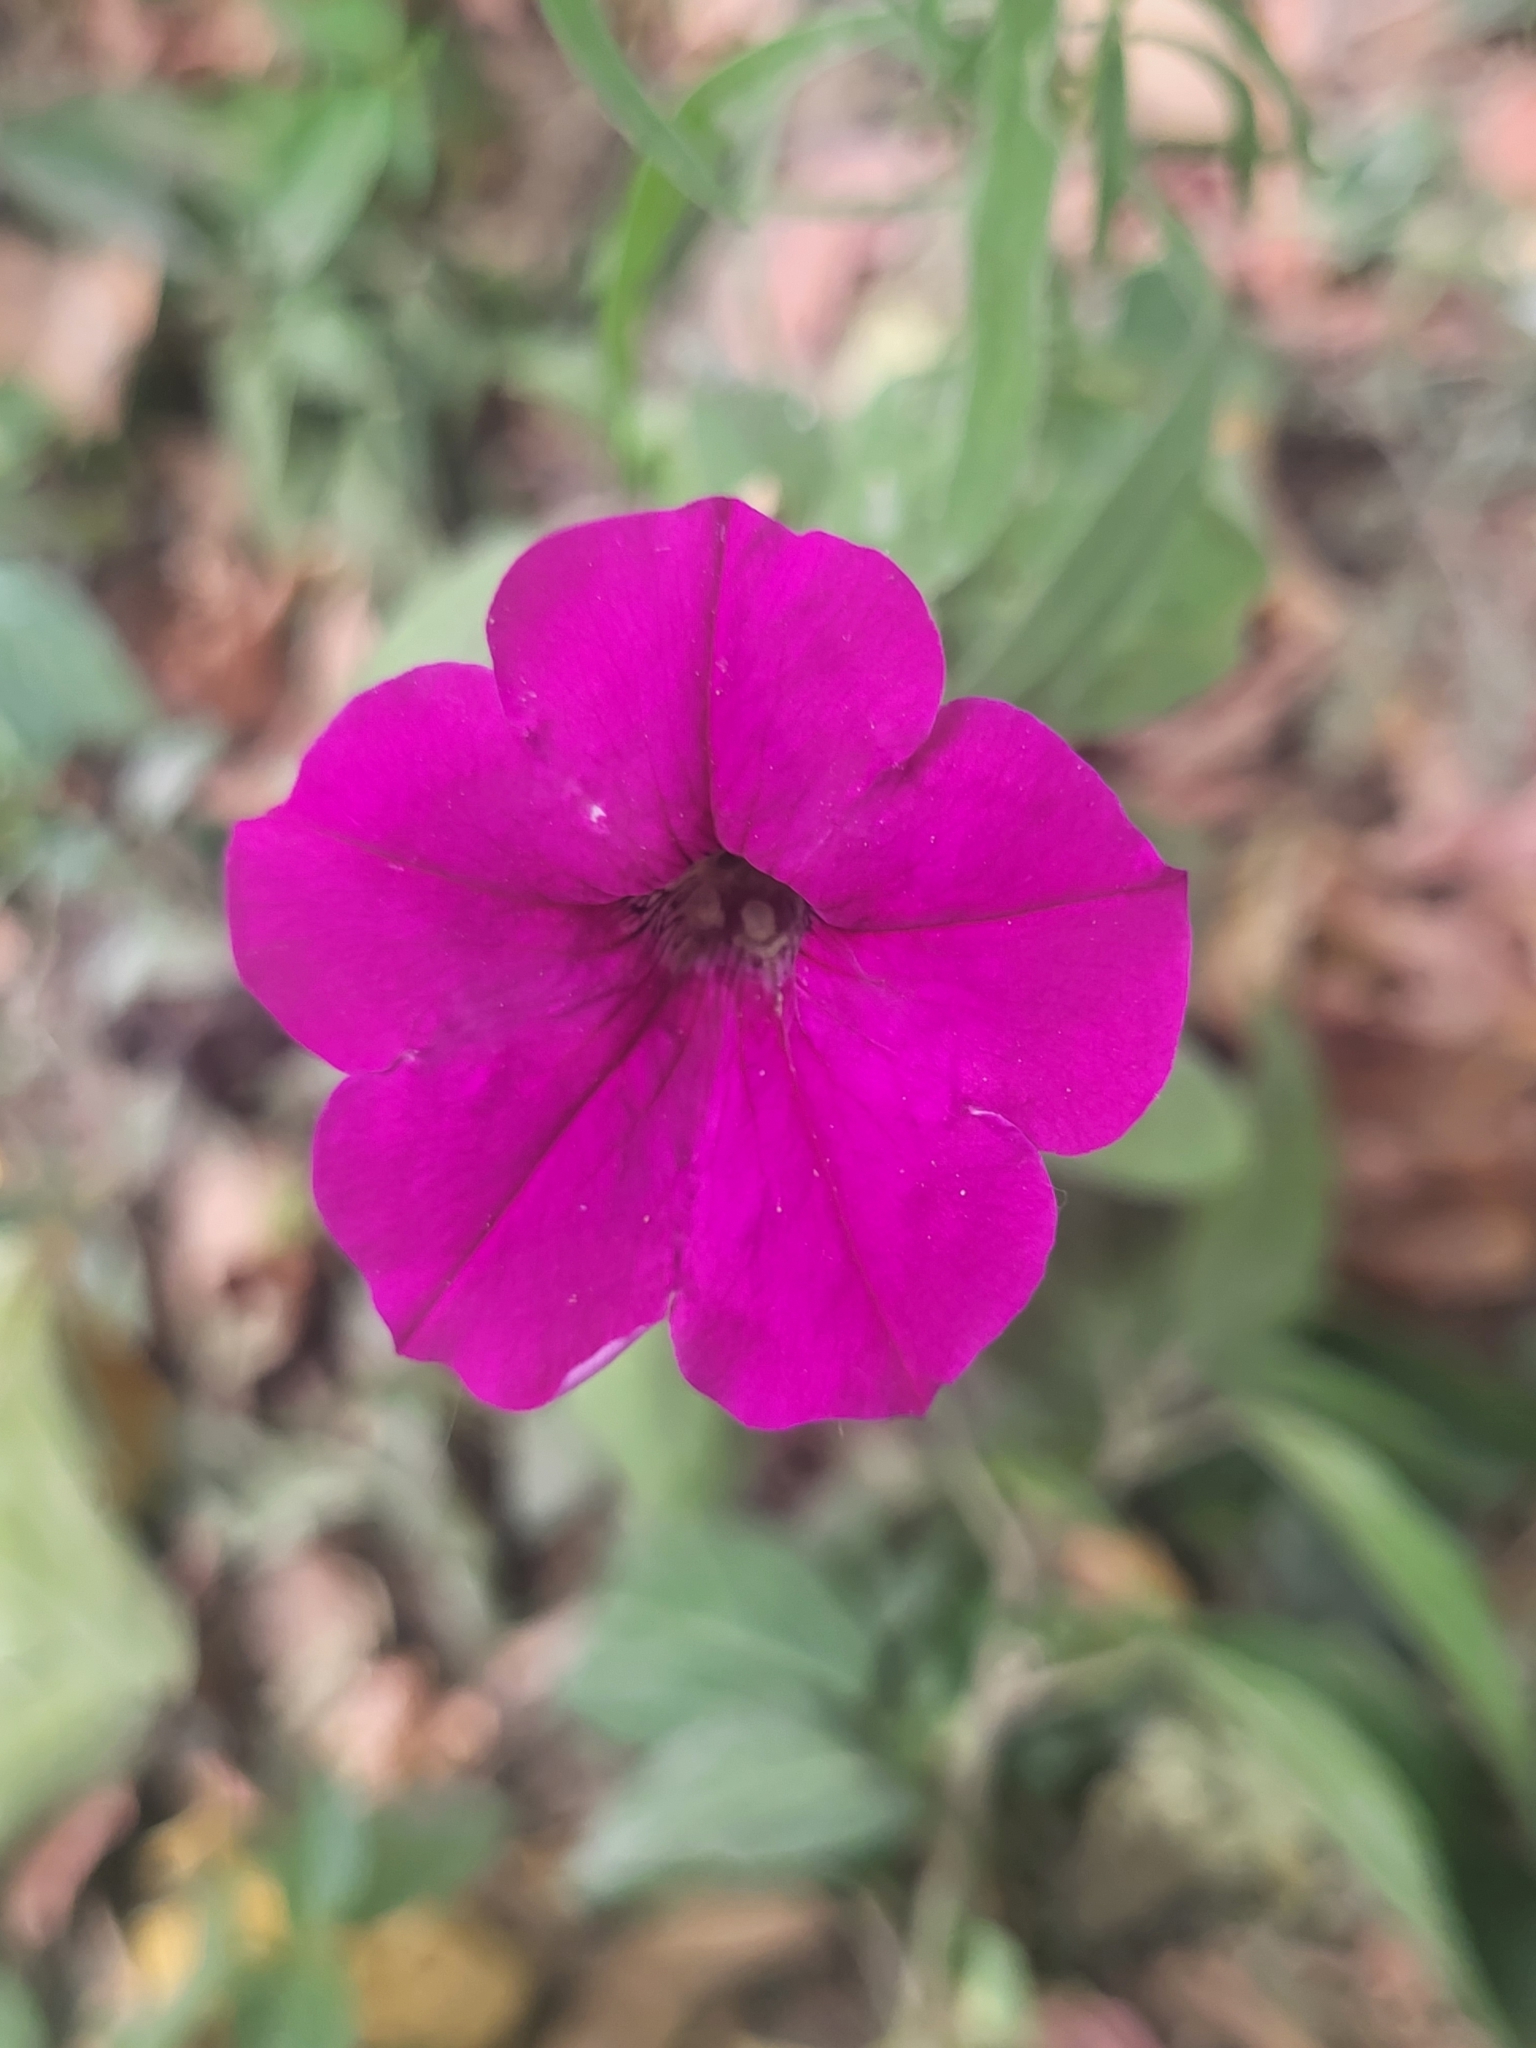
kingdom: Plantae
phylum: Tracheophyta
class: Magnoliopsida
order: Solanales
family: Solanaceae
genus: Petunia
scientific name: Petunia atkinsiana
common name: Petunia
